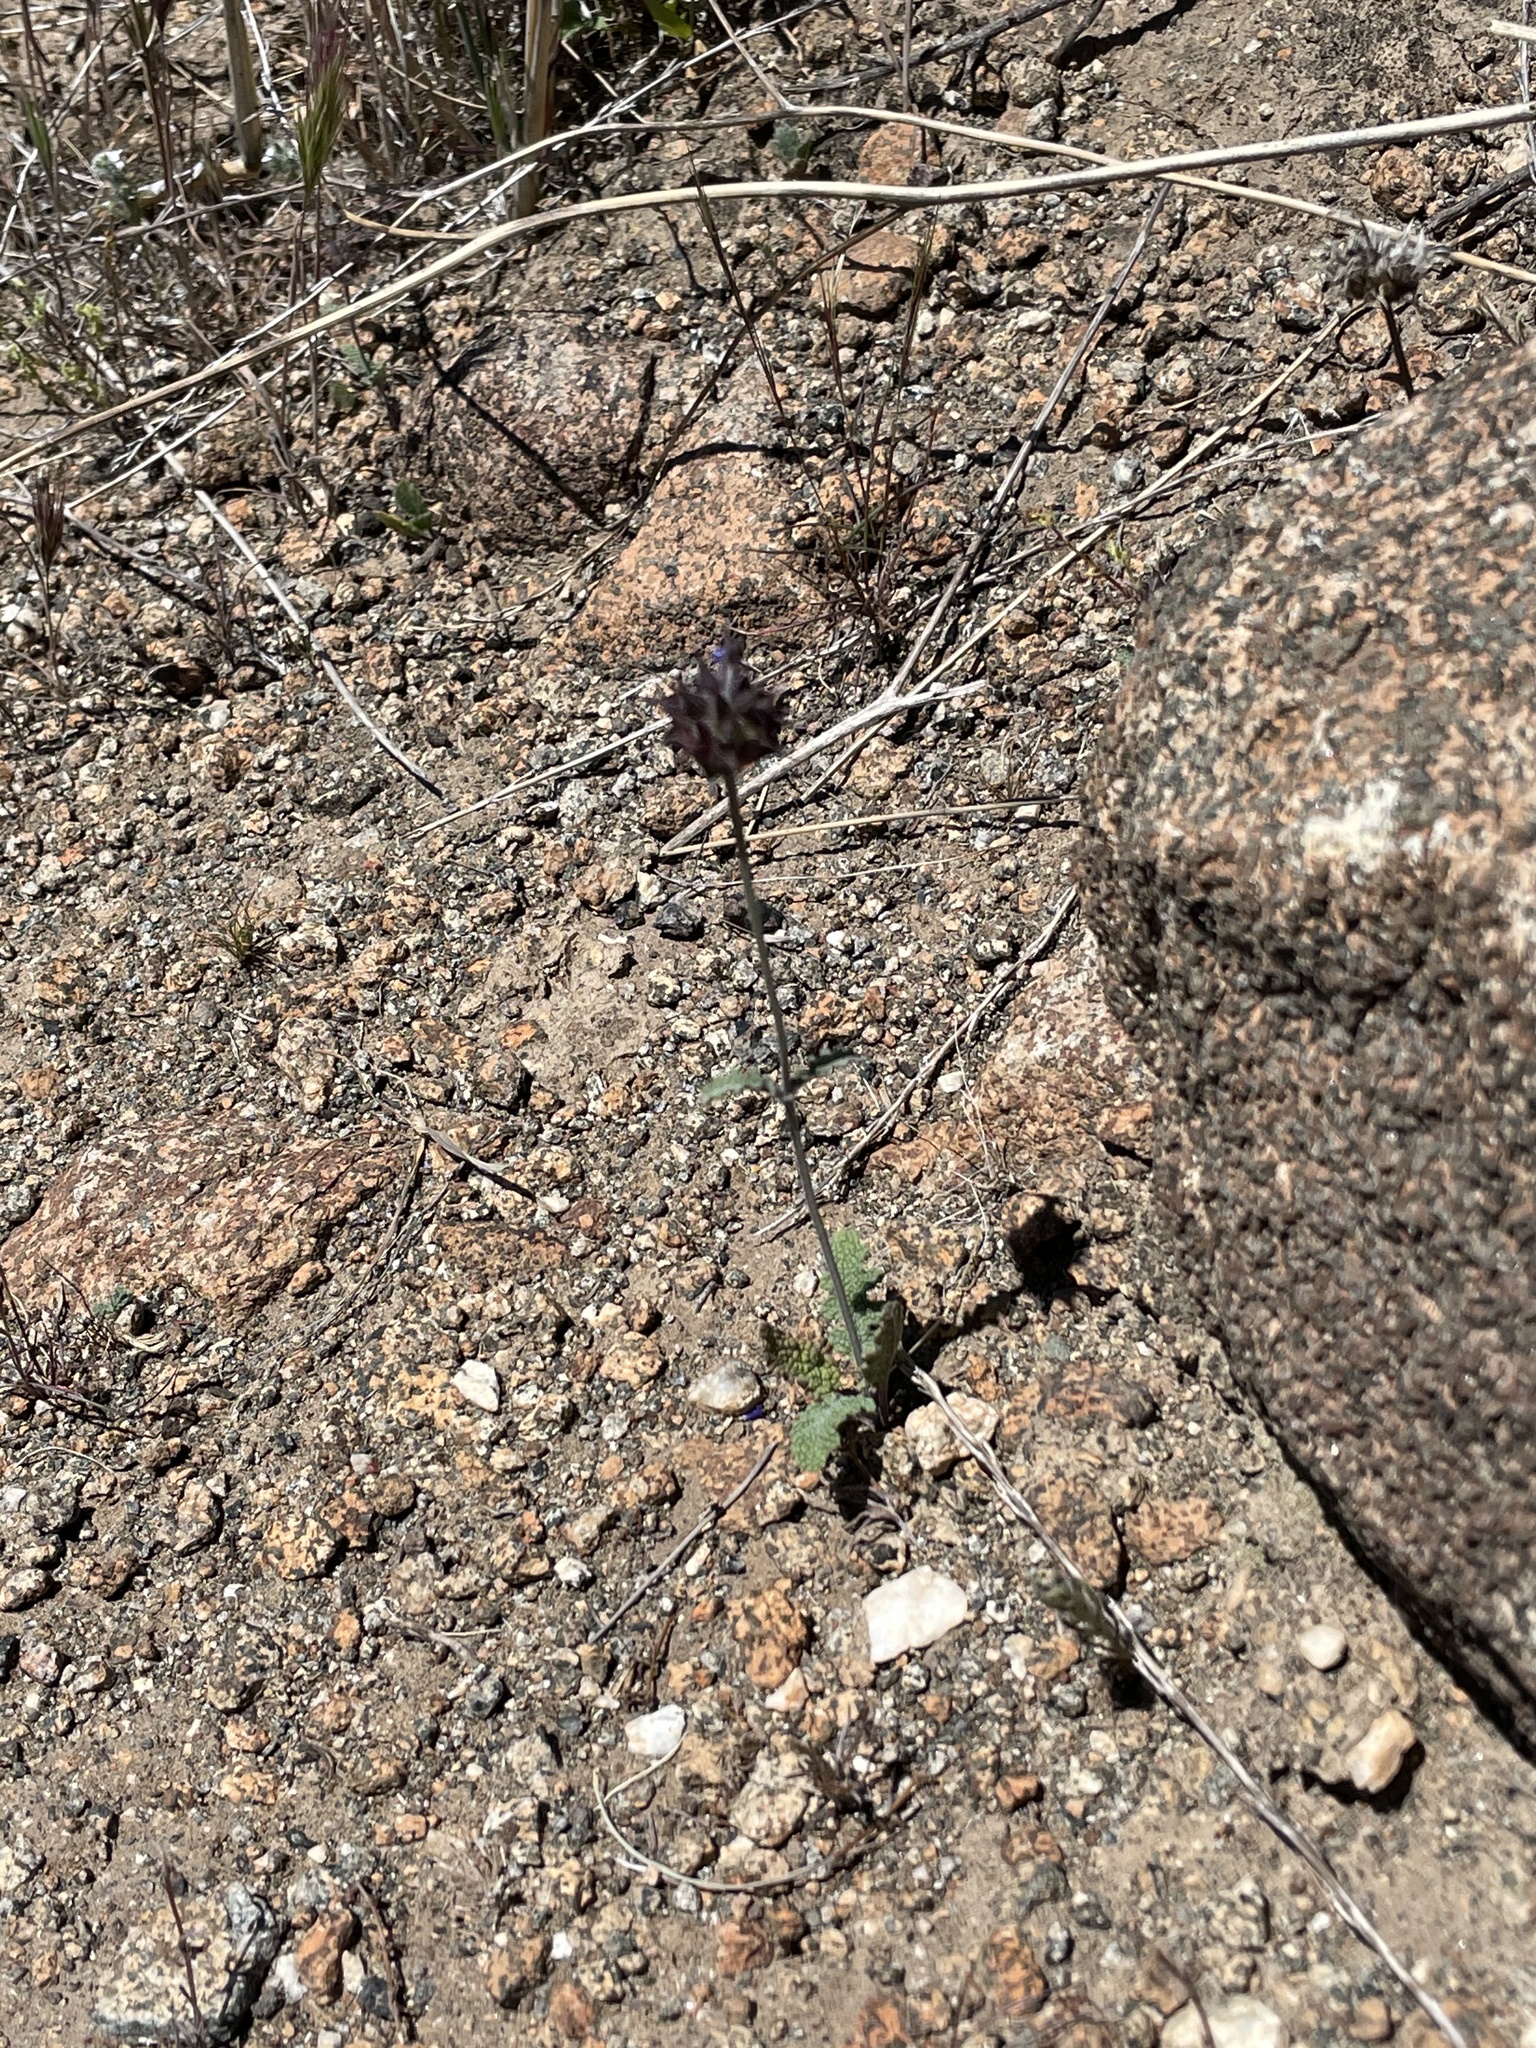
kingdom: Plantae
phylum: Tracheophyta
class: Magnoliopsida
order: Lamiales
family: Lamiaceae
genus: Salvia
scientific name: Salvia columbariae
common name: Chia
